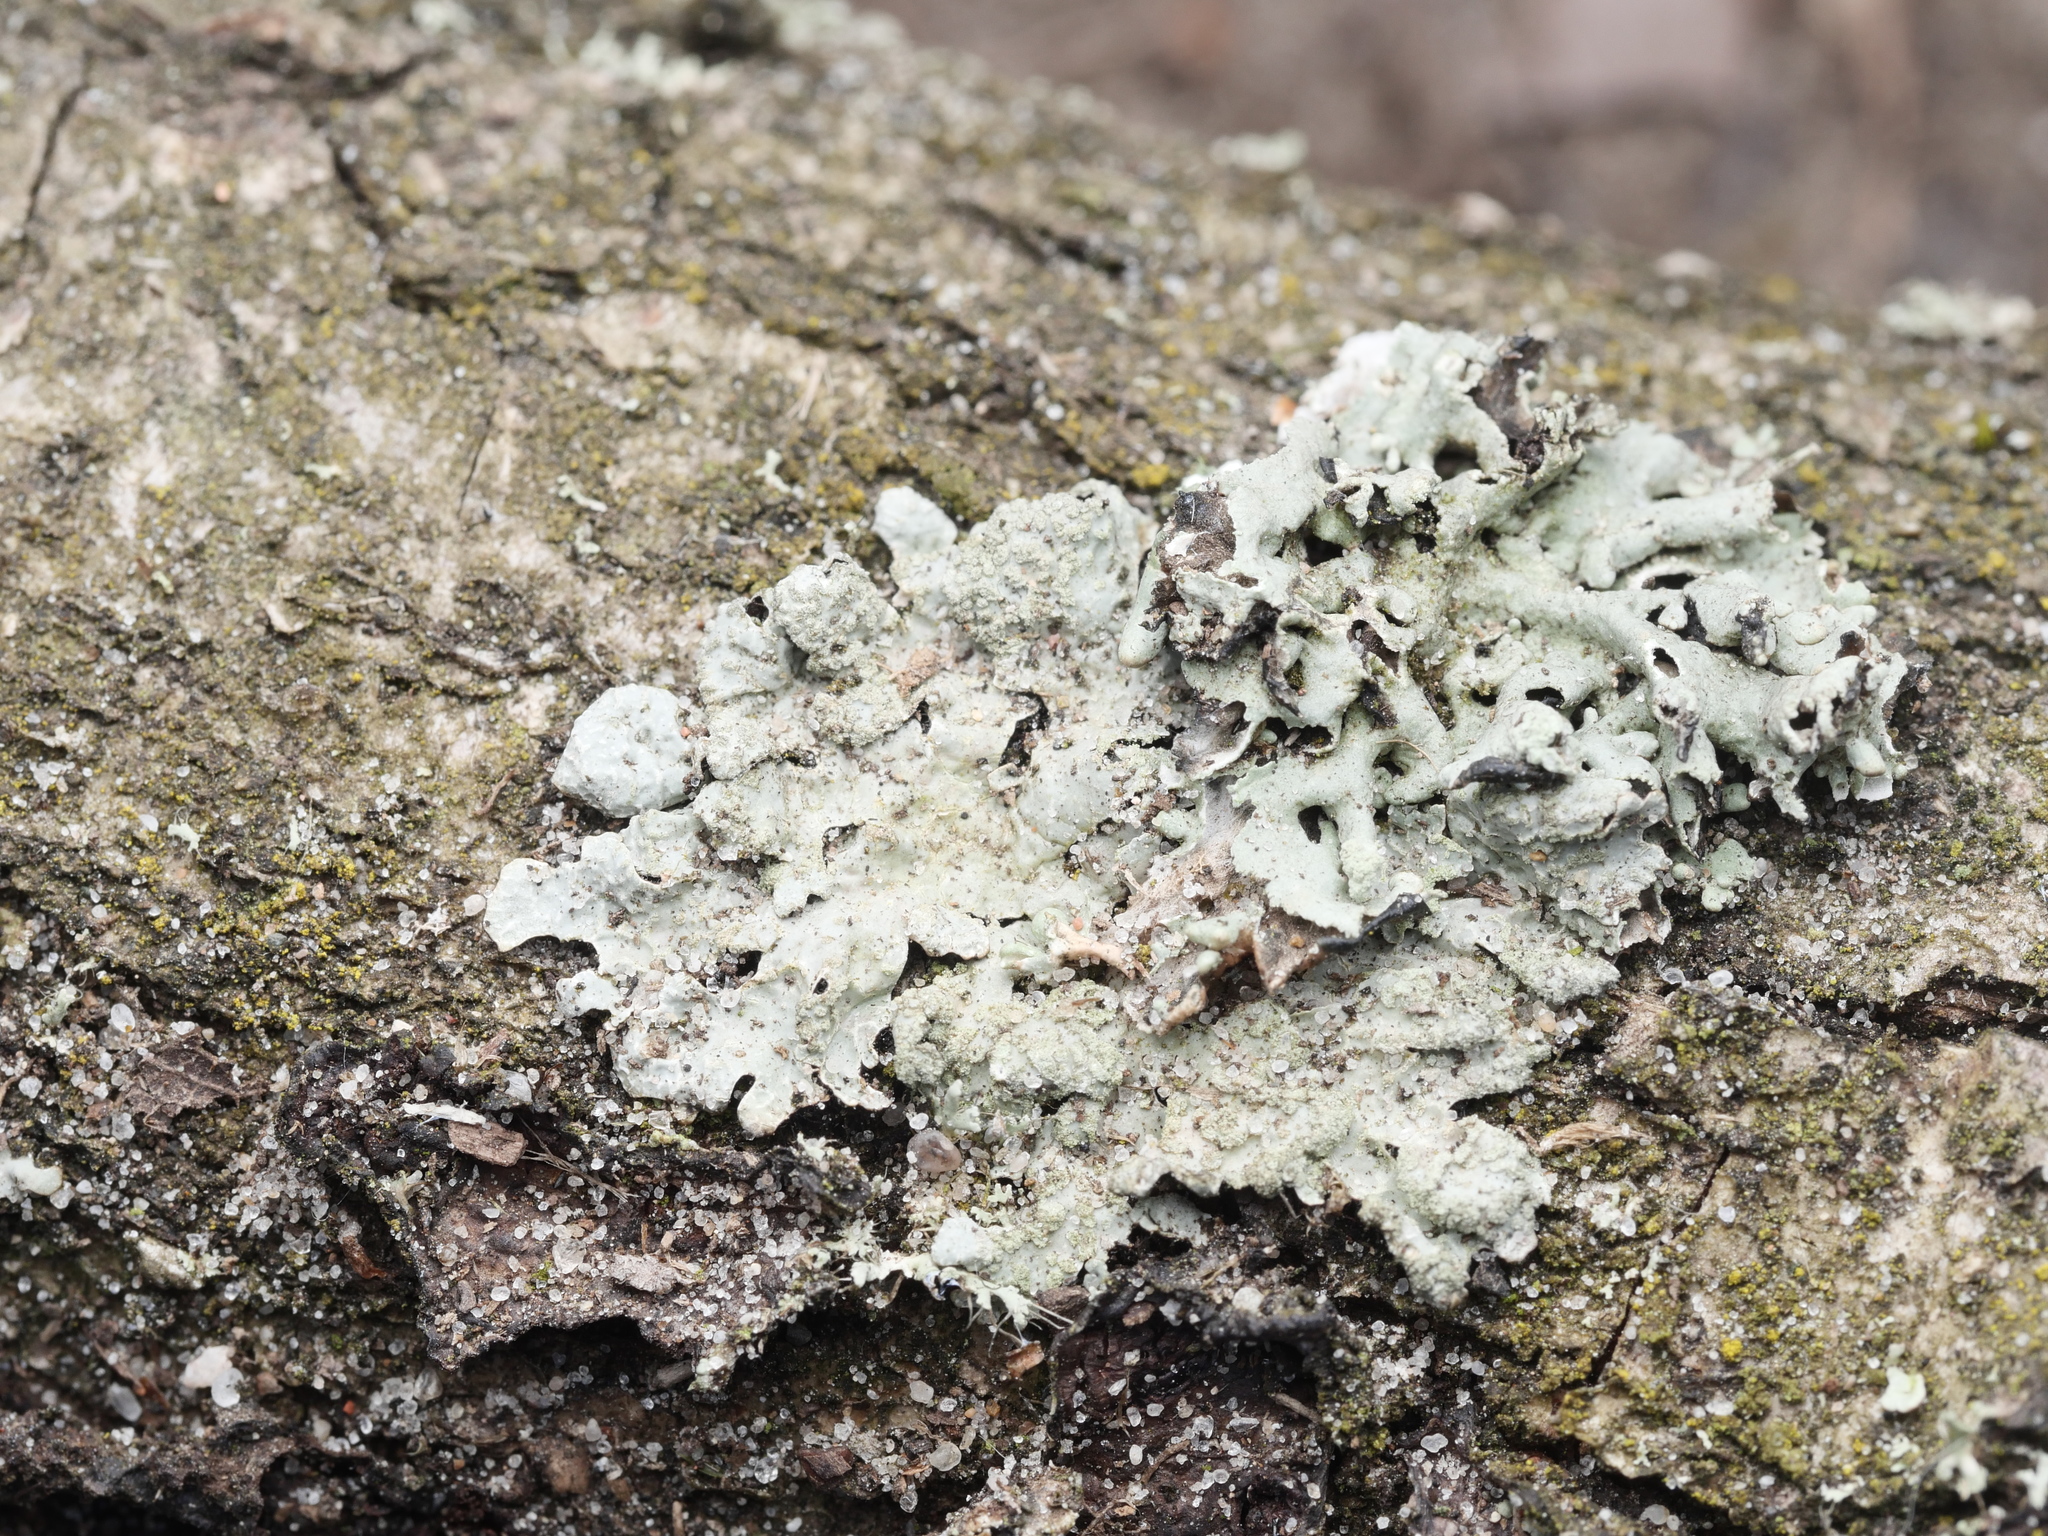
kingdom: Fungi
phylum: Ascomycota
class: Lecanoromycetes
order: Lecanorales
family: Parmeliaceae
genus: Parmelia
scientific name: Parmelia sulcata
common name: Netted shield lichen
